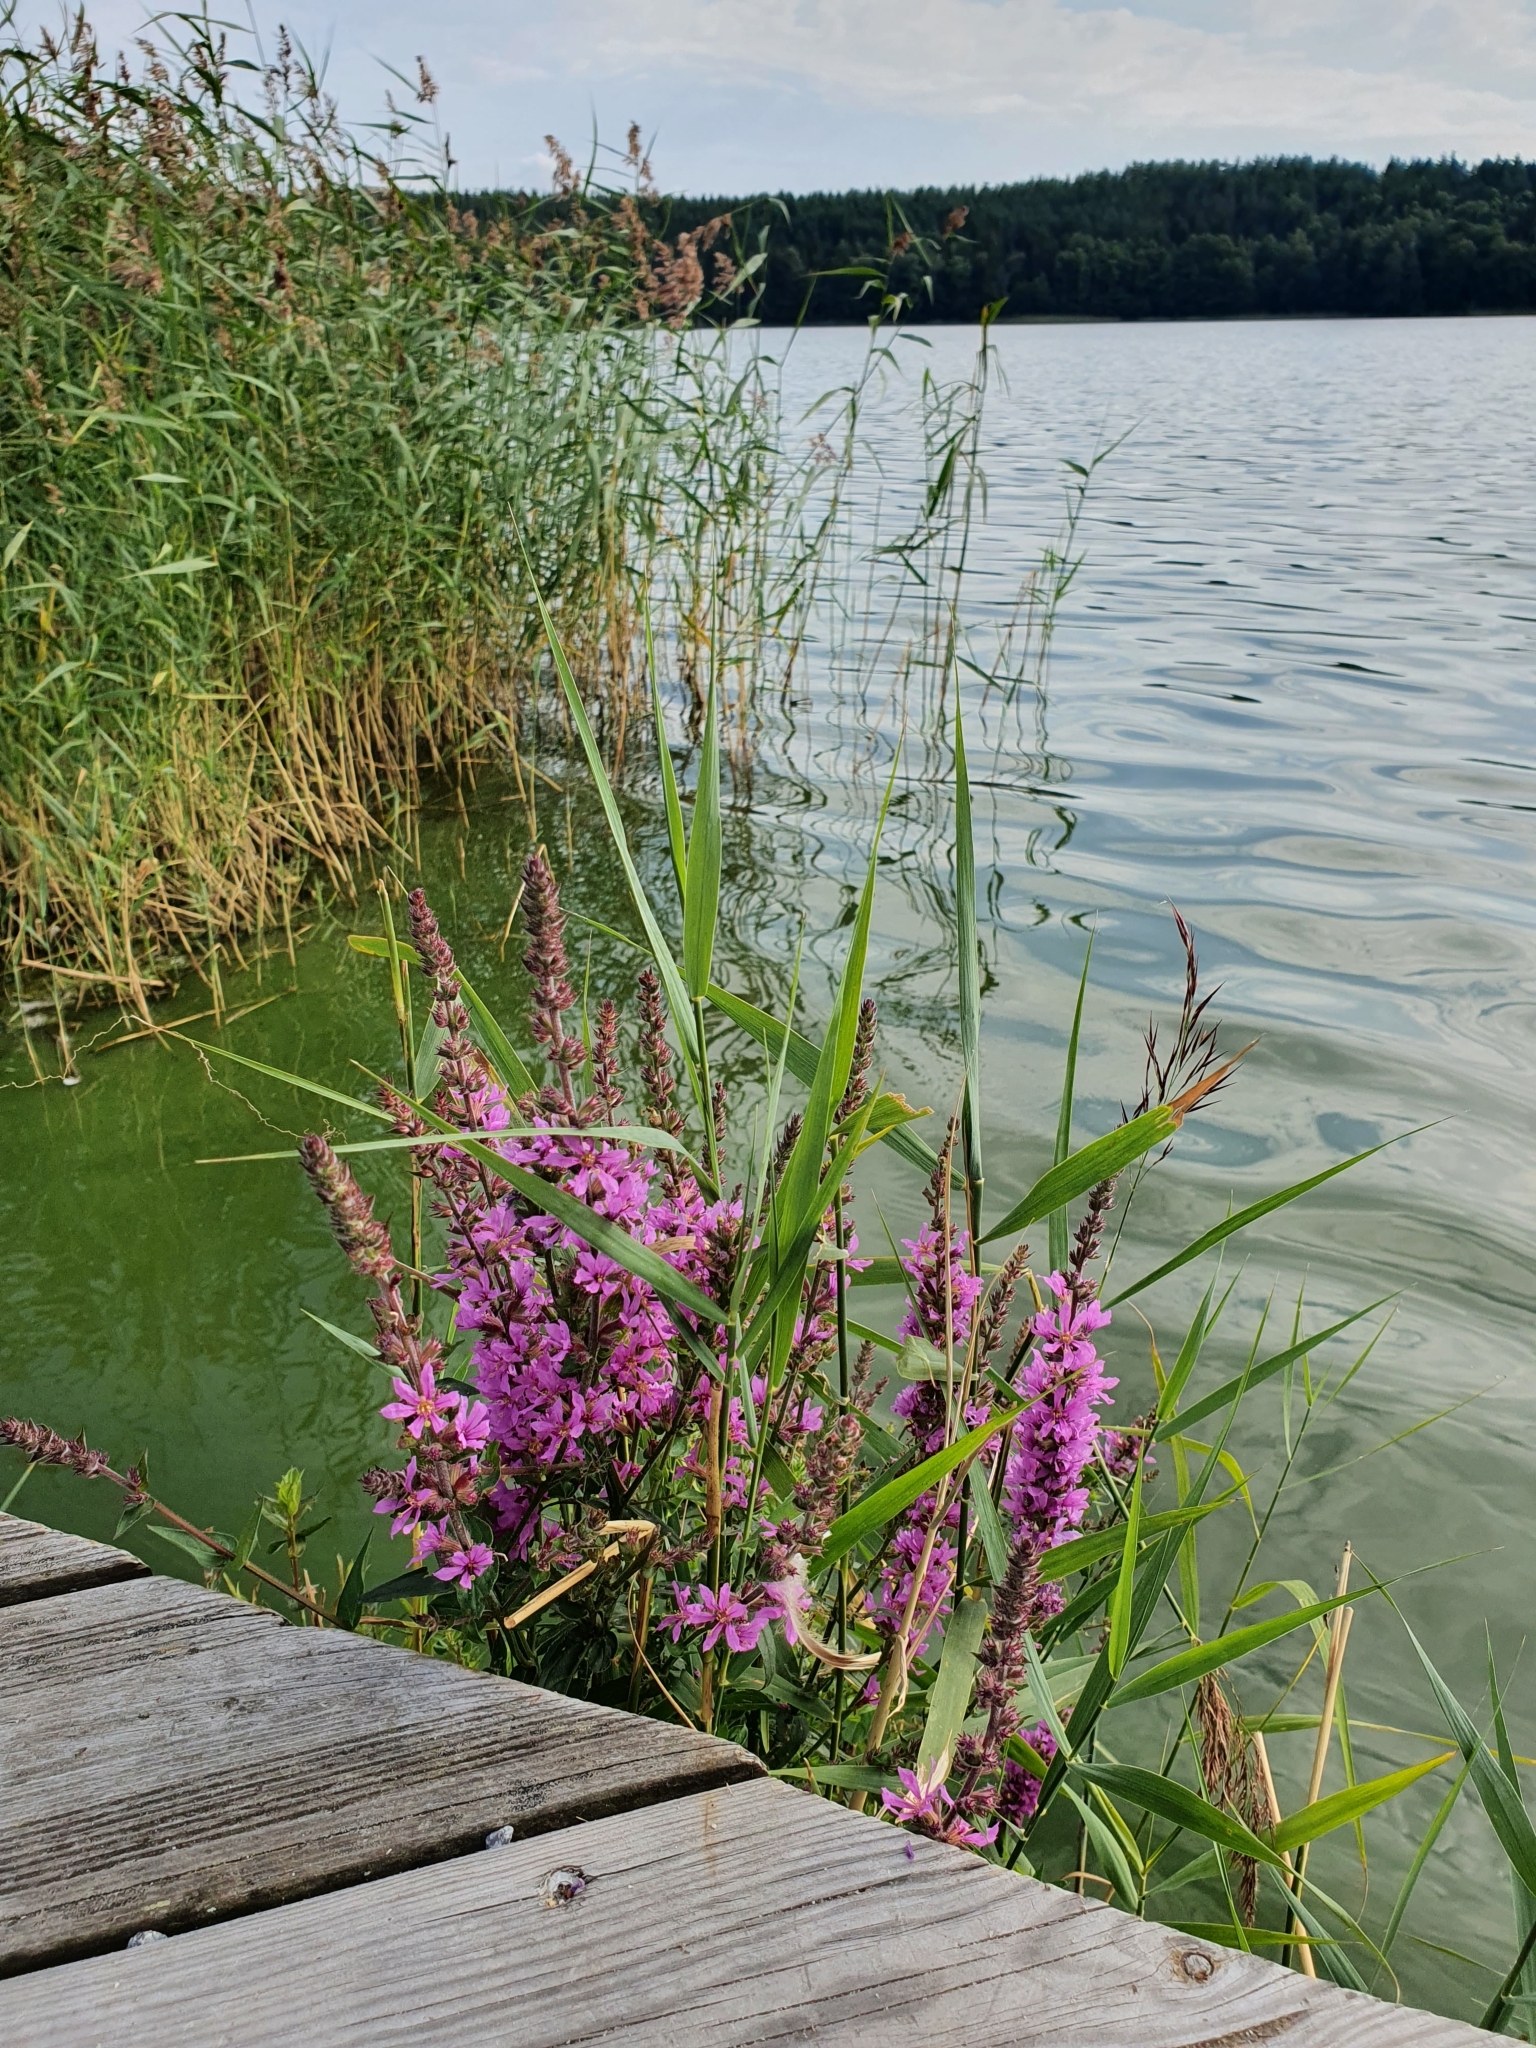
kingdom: Plantae
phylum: Tracheophyta
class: Magnoliopsida
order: Myrtales
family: Lythraceae
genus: Lythrum
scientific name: Lythrum salicaria
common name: Purple loosestrife
